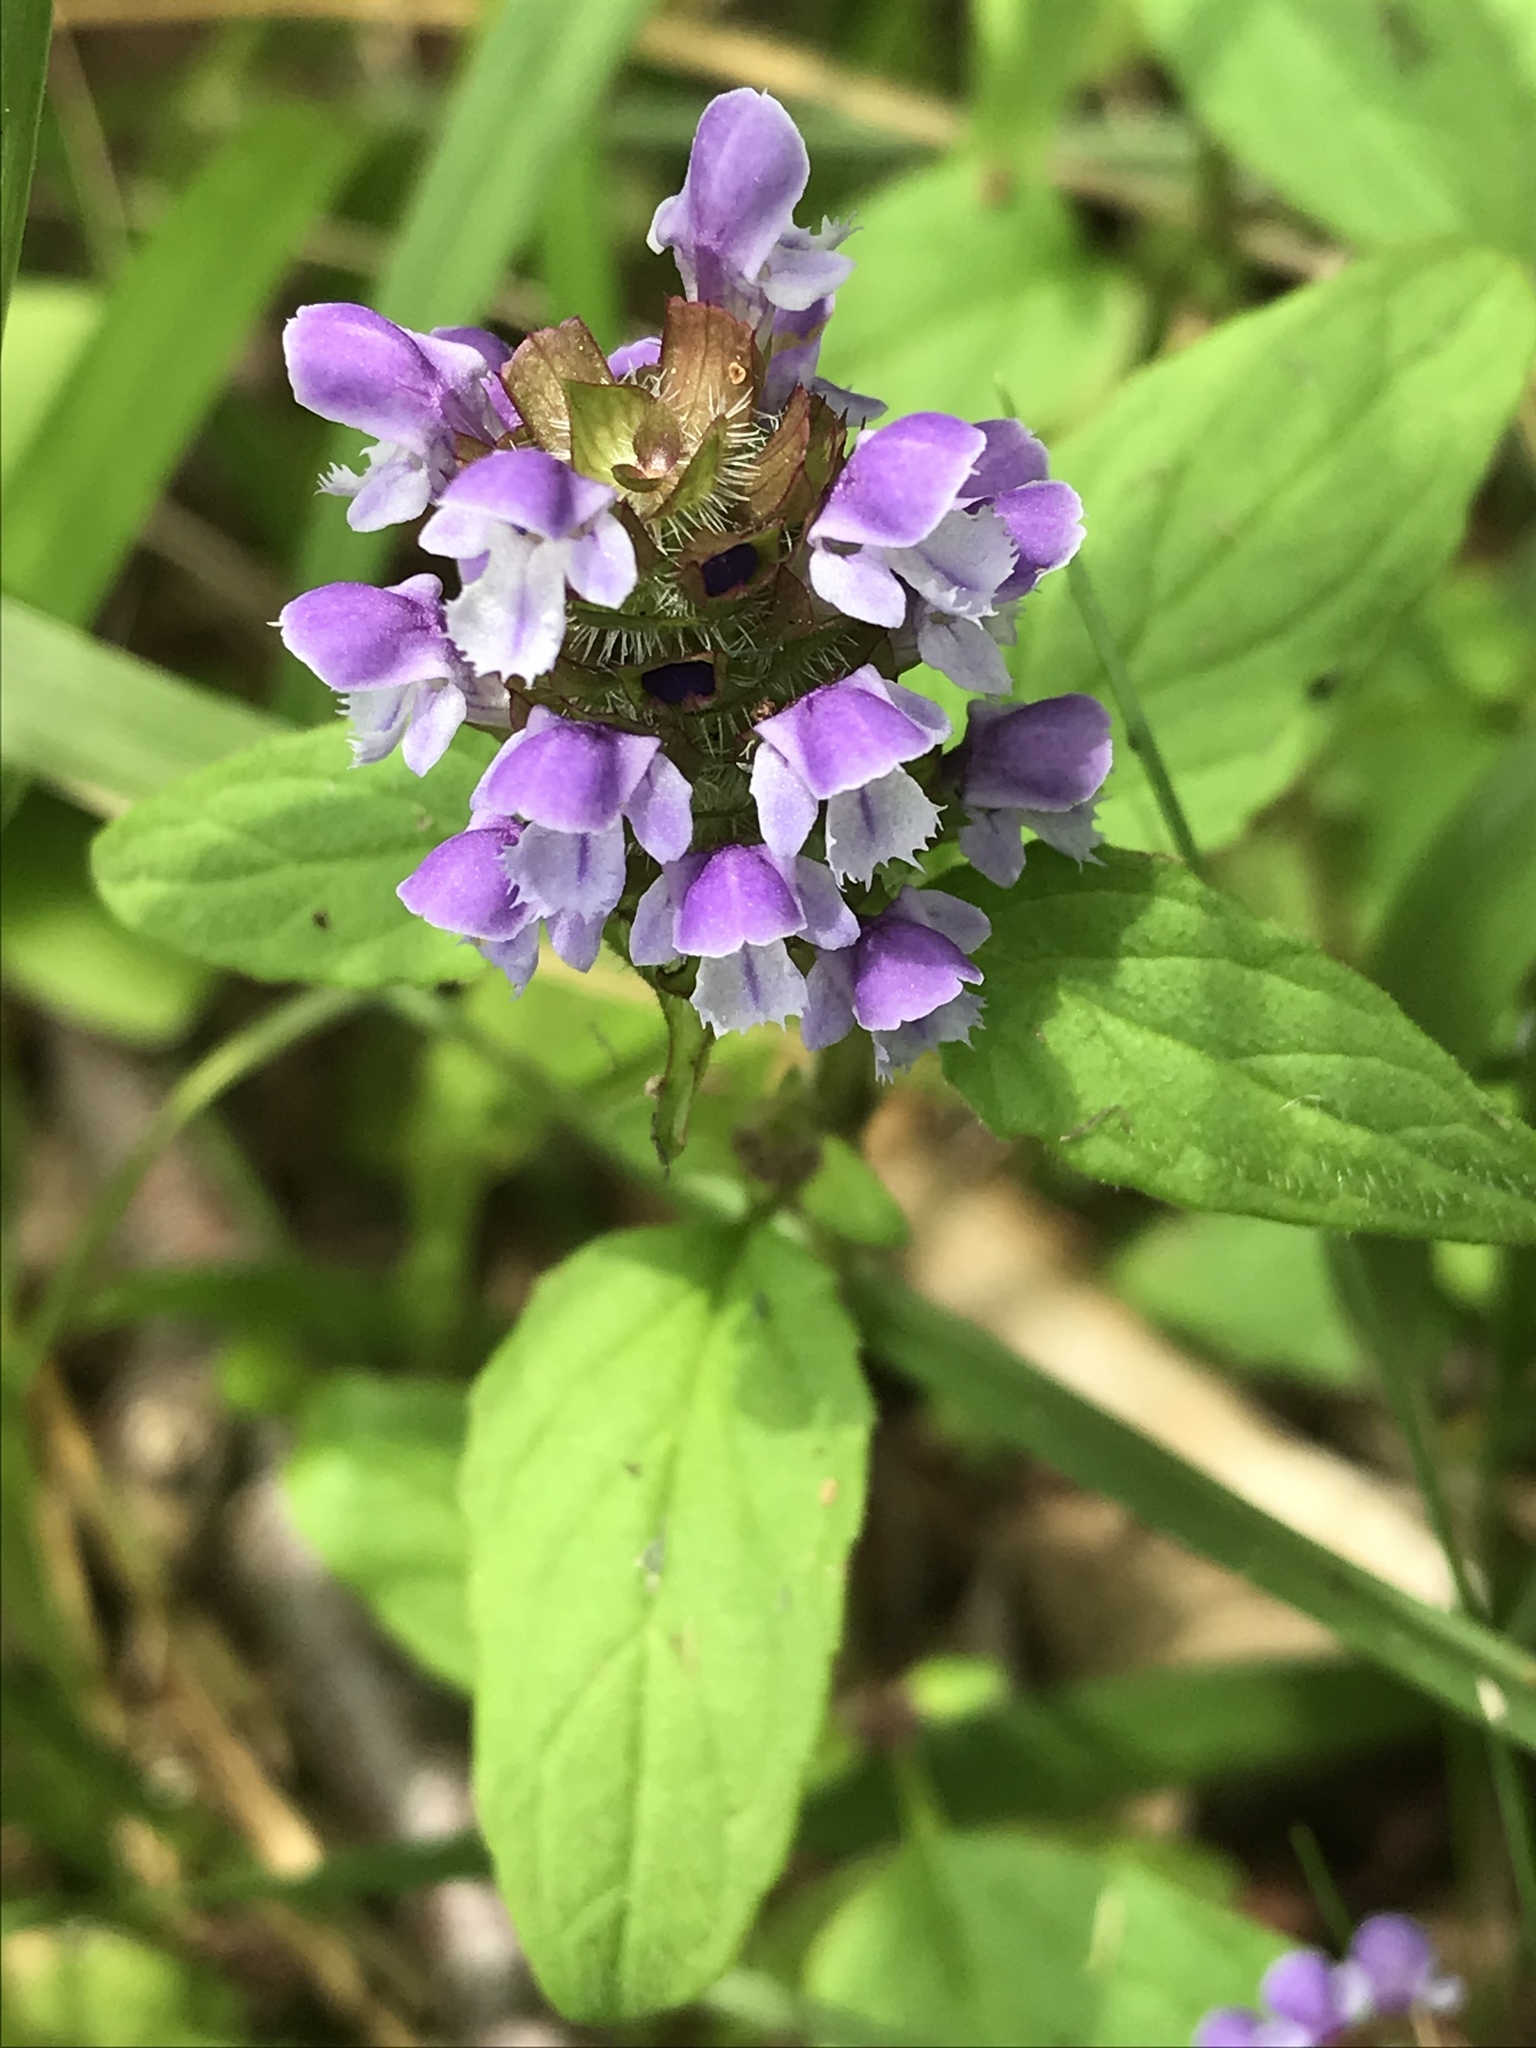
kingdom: Plantae
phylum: Tracheophyta
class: Magnoliopsida
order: Lamiales
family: Lamiaceae
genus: Prunella
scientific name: Prunella vulgaris
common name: Heal-all
